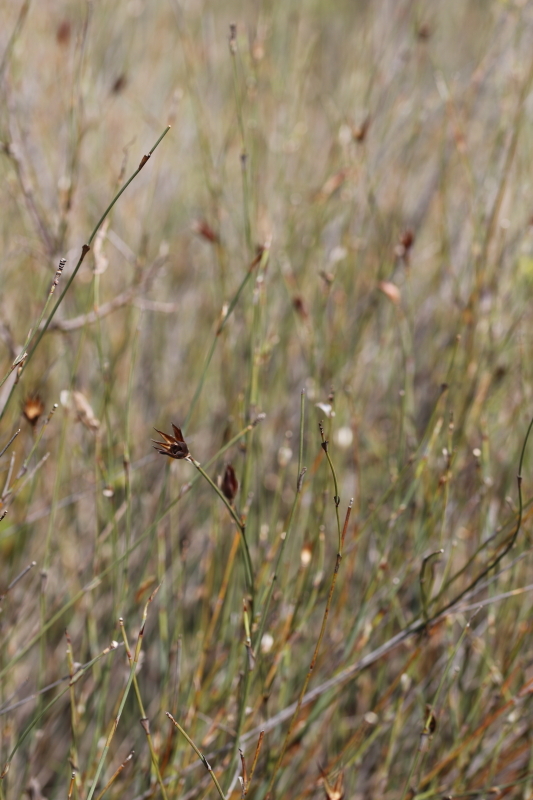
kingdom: Plantae
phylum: Tracheophyta
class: Liliopsida
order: Poales
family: Restionaceae
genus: Willdenowia
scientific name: Willdenowia incurvata
